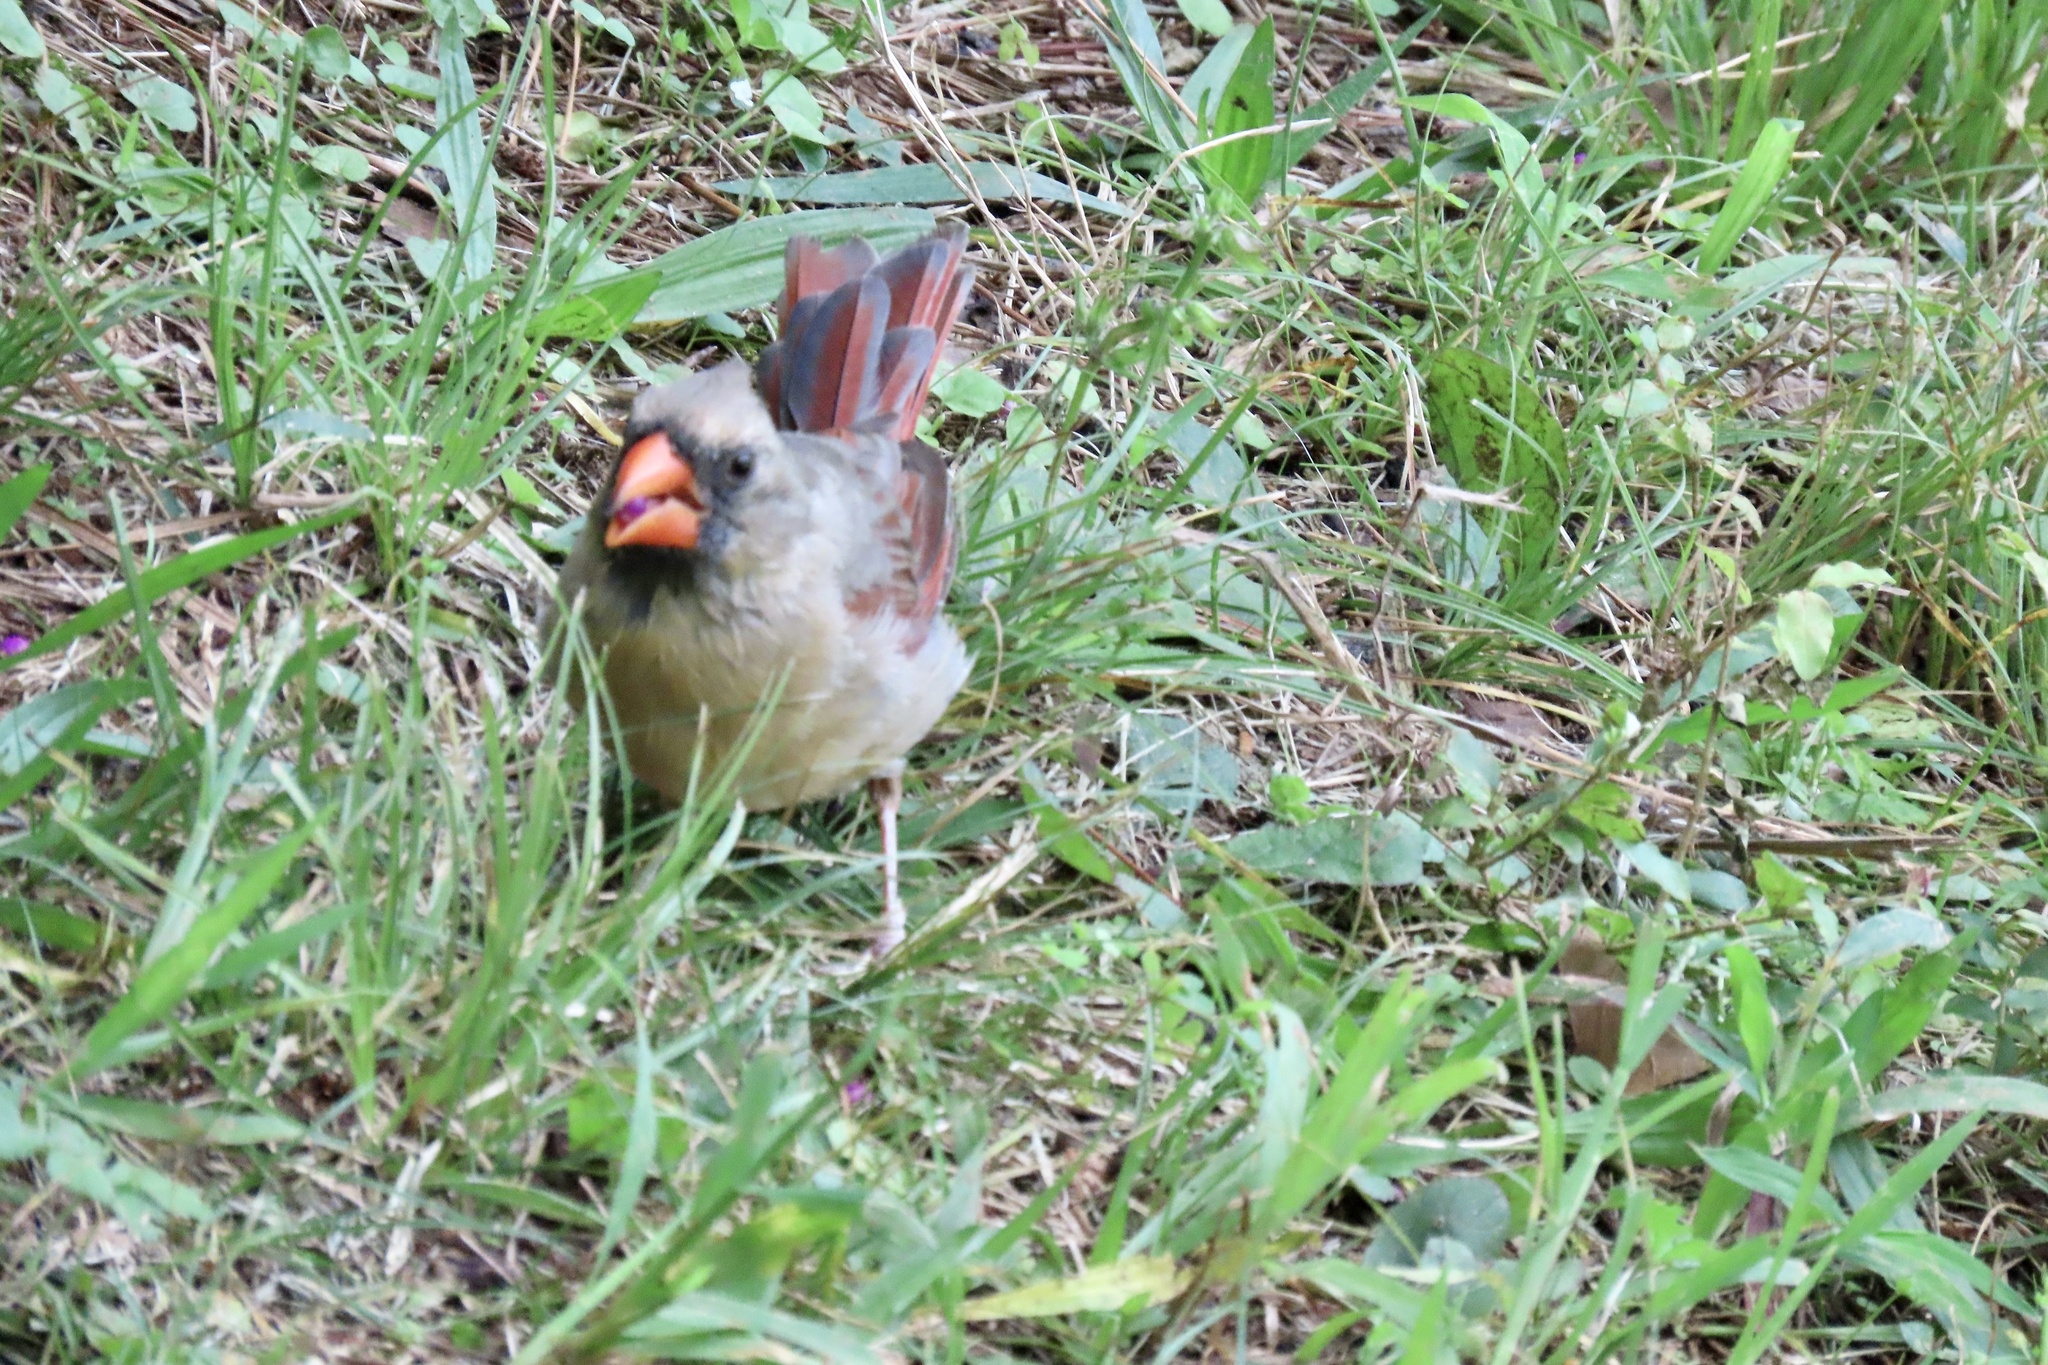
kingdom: Animalia
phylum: Chordata
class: Aves
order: Passeriformes
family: Cardinalidae
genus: Cardinalis
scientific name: Cardinalis cardinalis
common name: Northern cardinal
